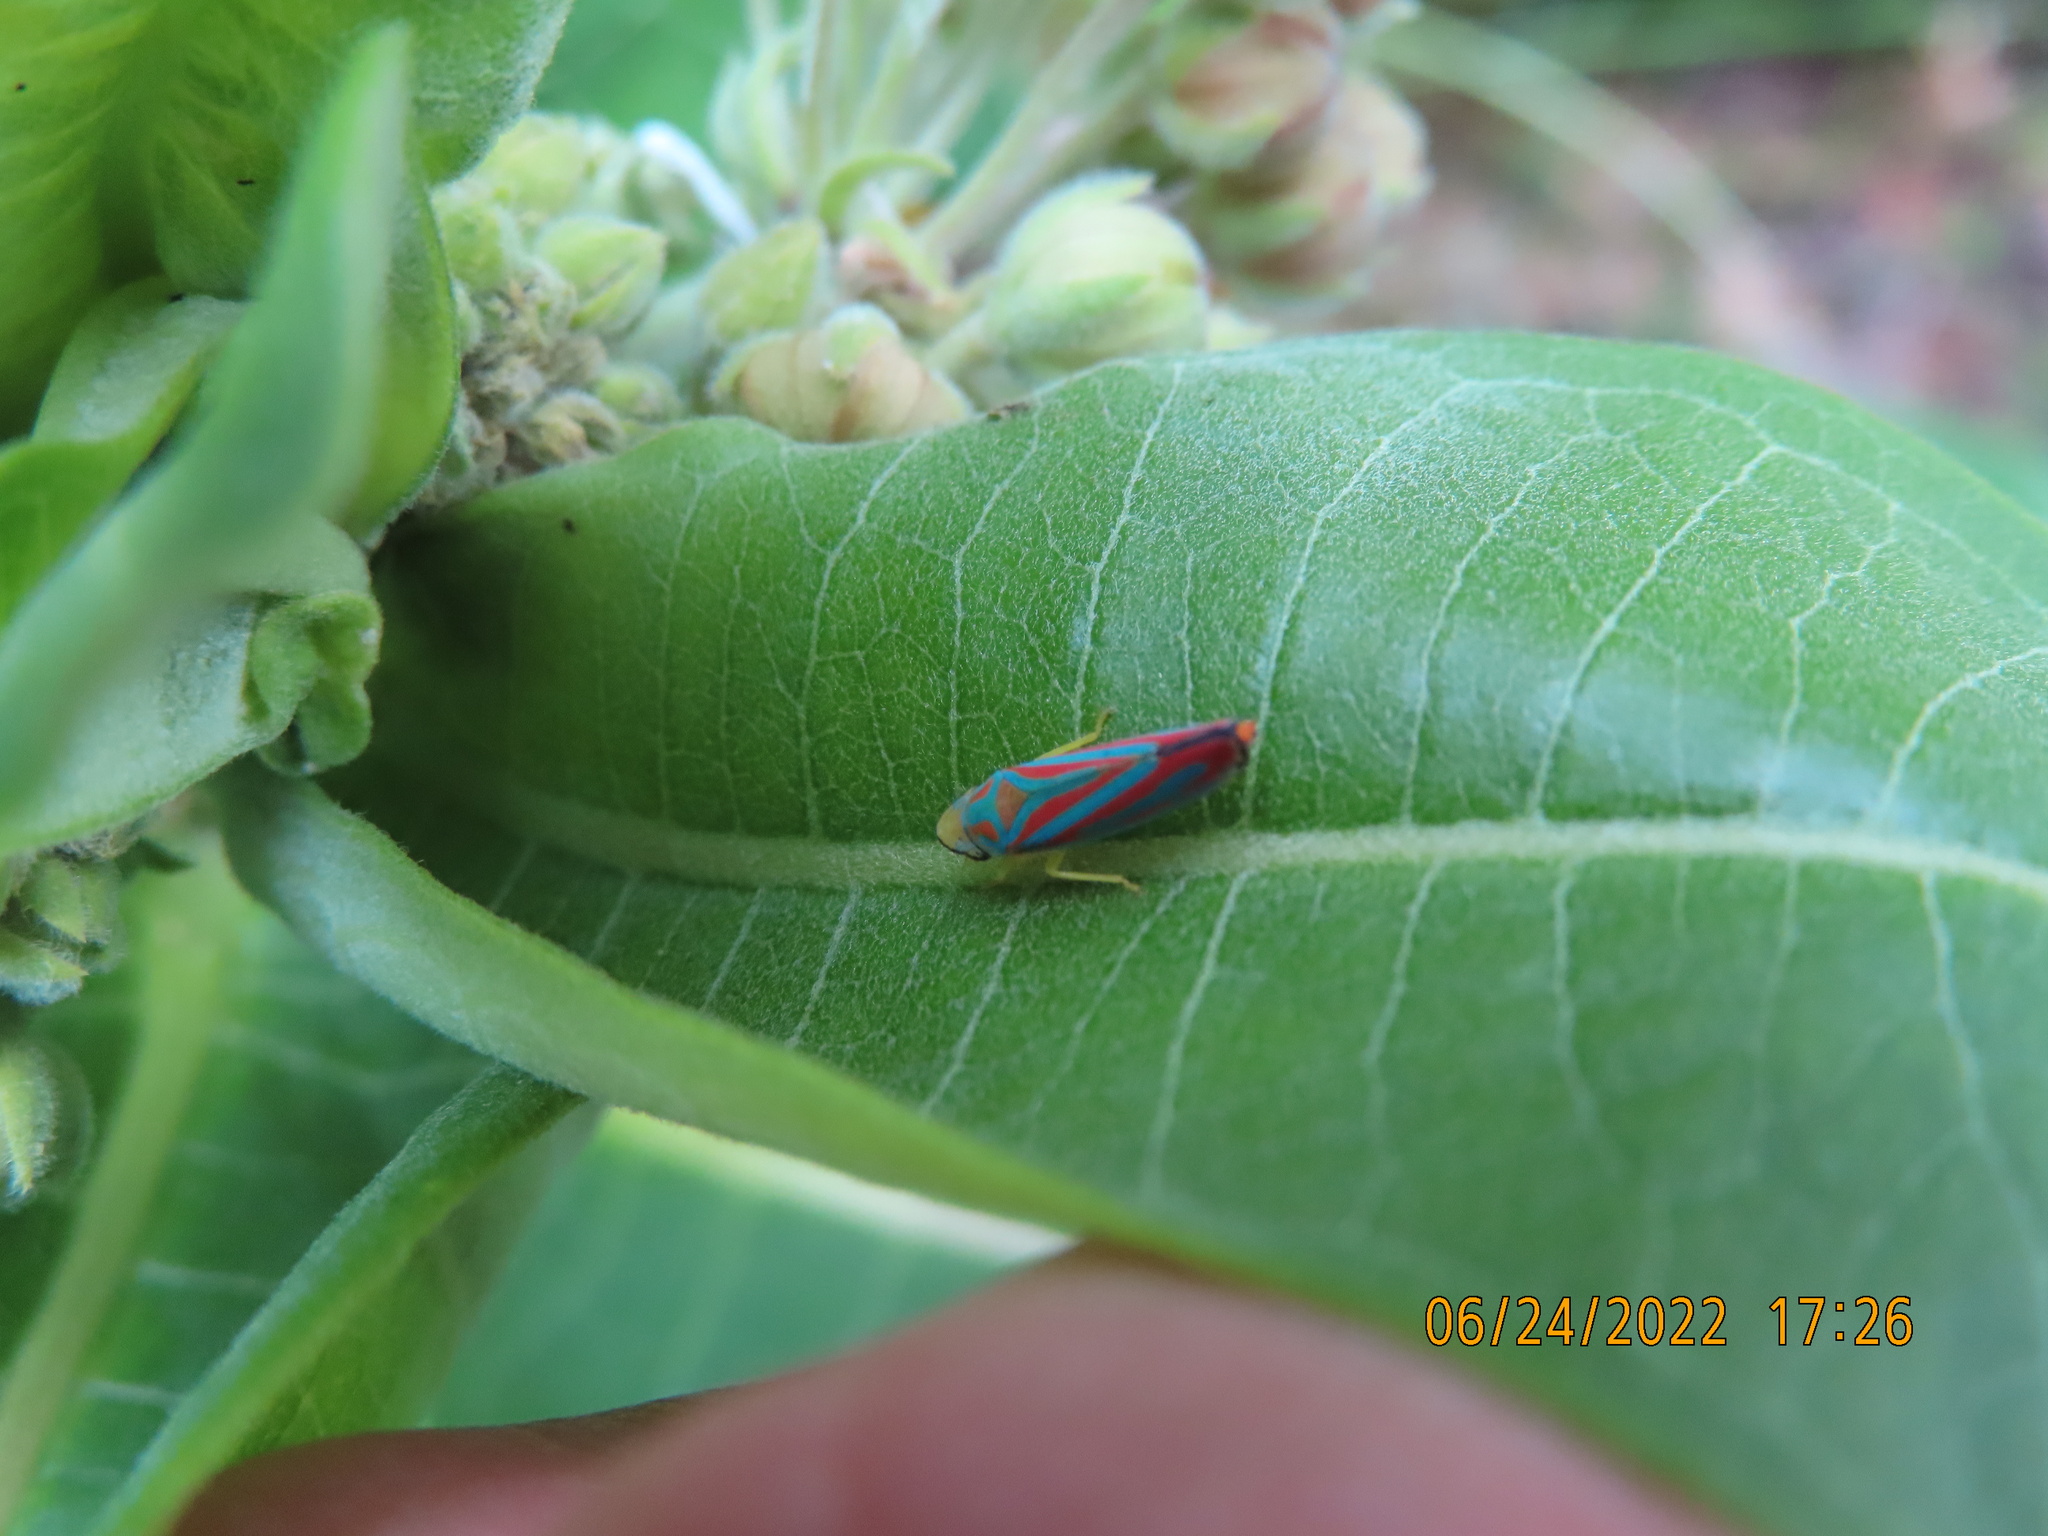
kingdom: Animalia
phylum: Arthropoda
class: Insecta
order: Hemiptera
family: Cicadellidae
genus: Graphocephala
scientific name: Graphocephala coccinea
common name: Candy-striped leafhopper
